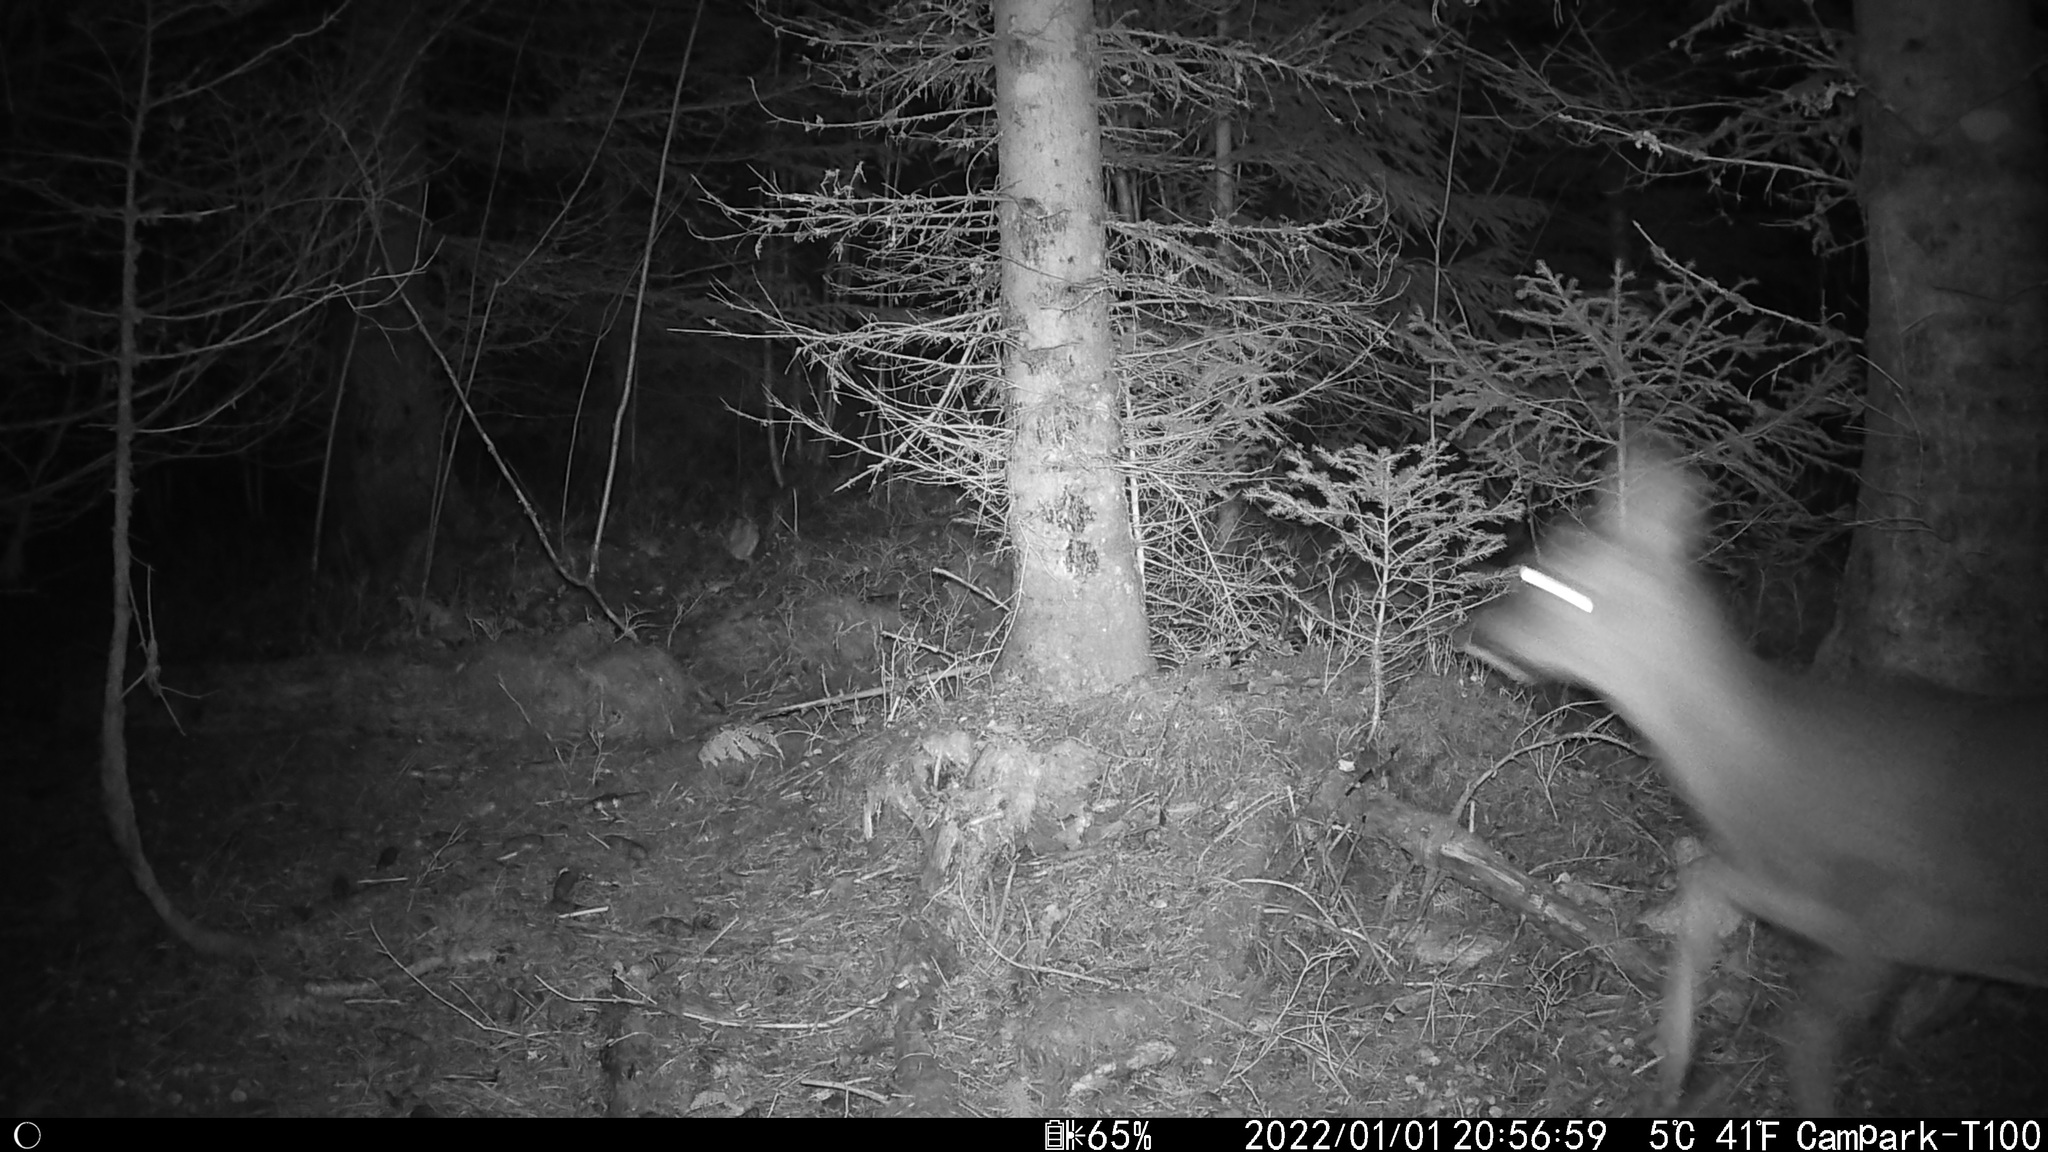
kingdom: Animalia
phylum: Chordata
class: Mammalia
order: Artiodactyla
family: Cervidae
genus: Capreolus
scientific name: Capreolus capreolus
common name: Western roe deer
